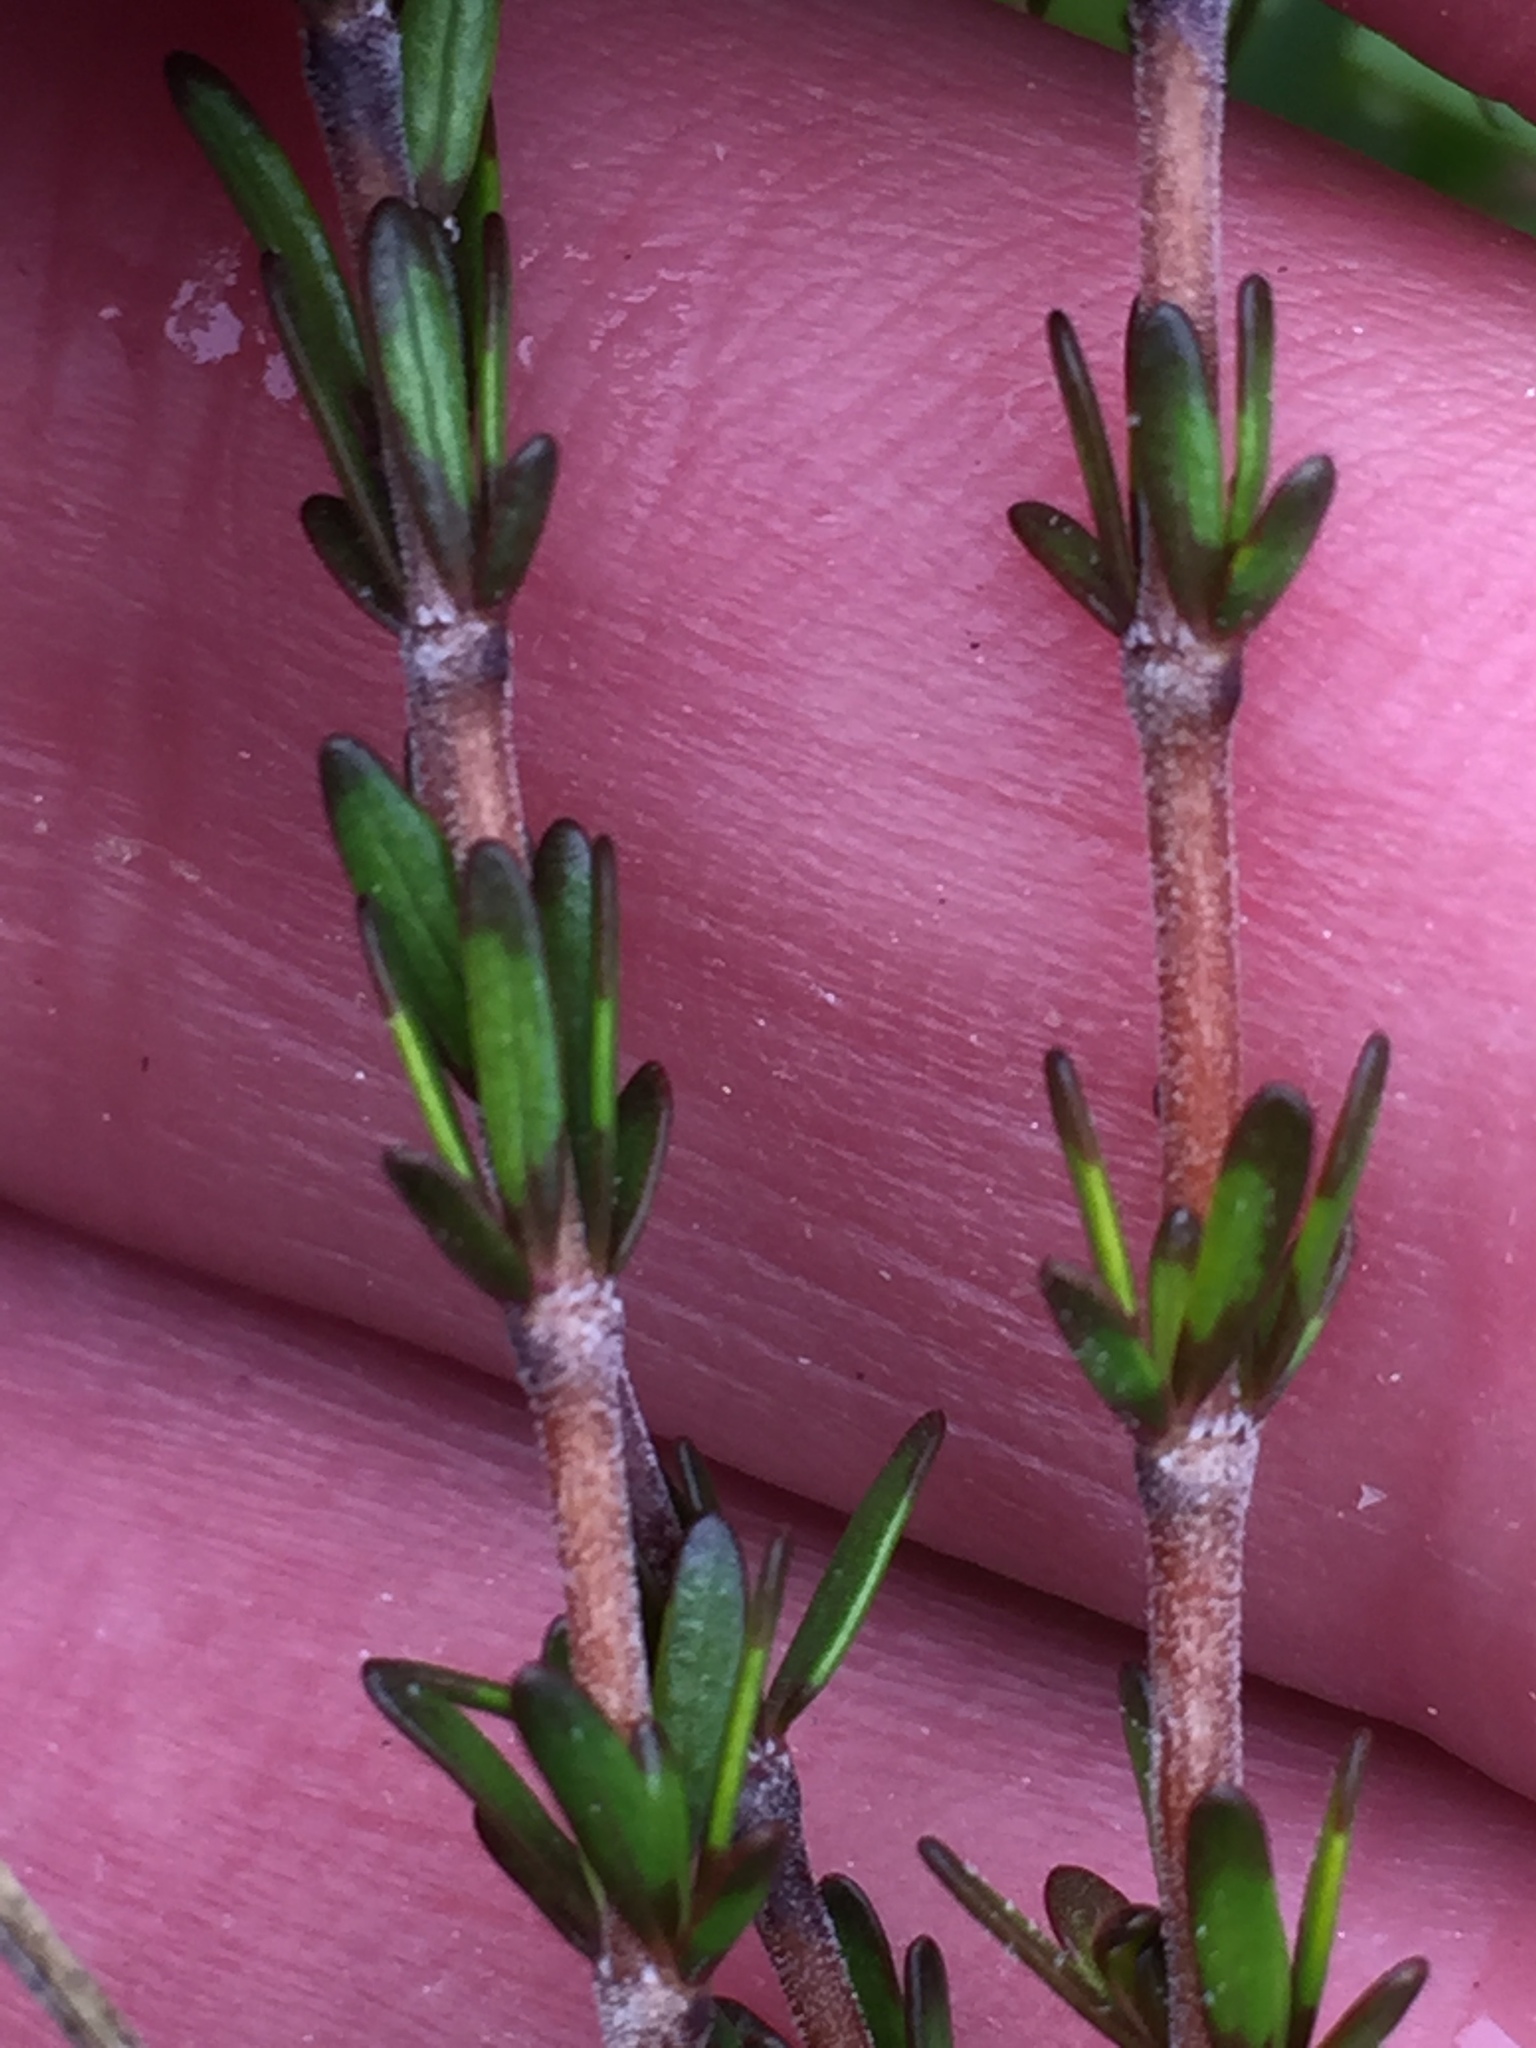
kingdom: Plantae
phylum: Tracheophyta
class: Magnoliopsida
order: Gentianales
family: Rubiaceae
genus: Coprosma
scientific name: Coprosma acerosa
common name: Sand coprosma
